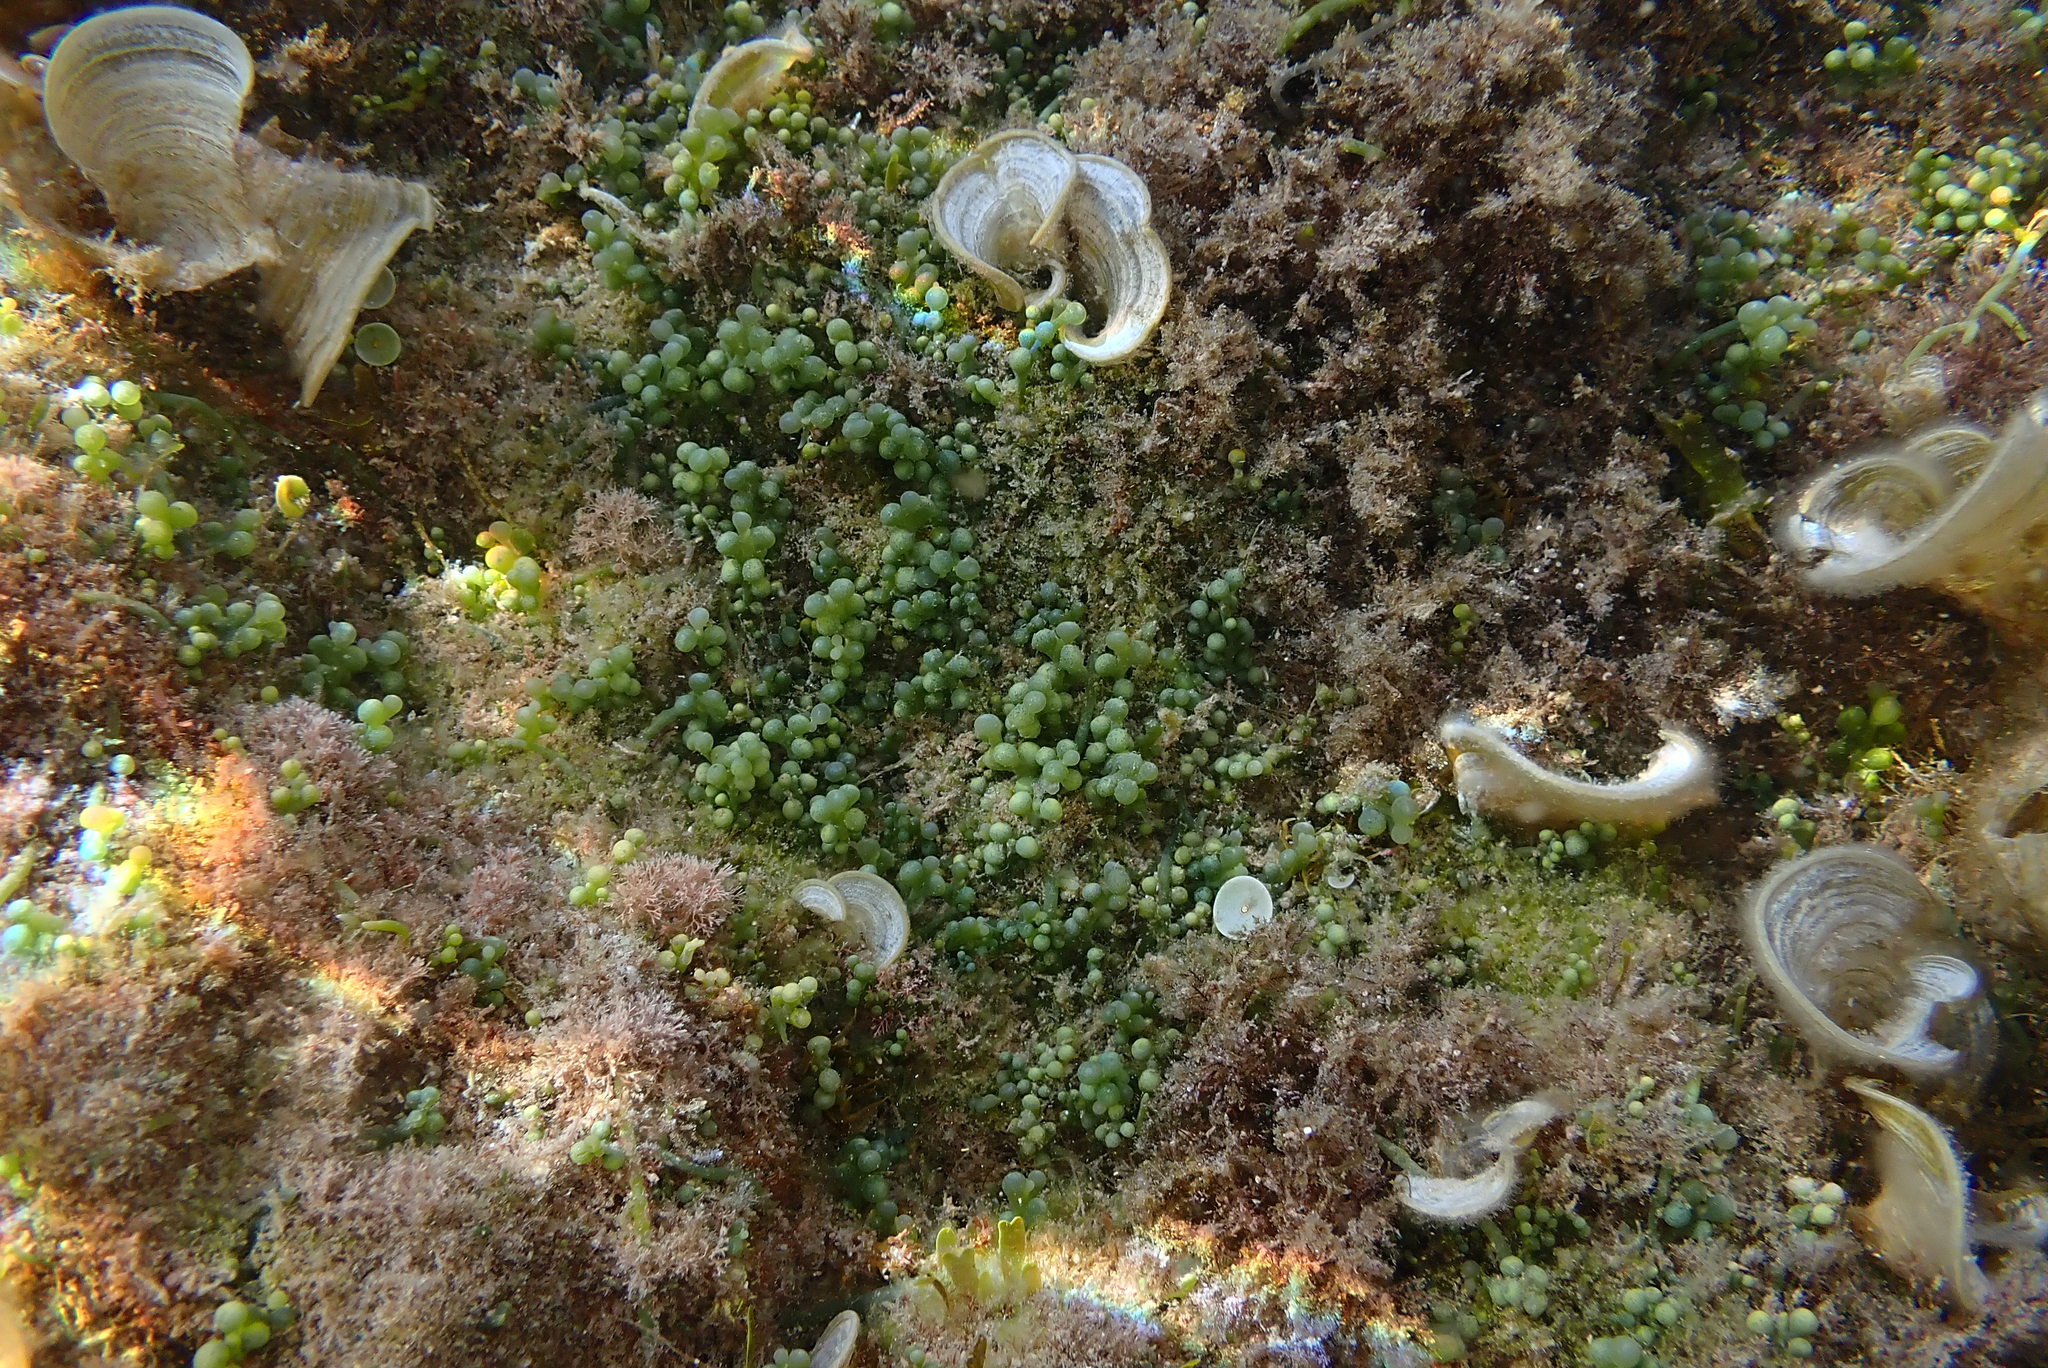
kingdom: Plantae
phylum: Chlorophyta
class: Ulvophyceae
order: Bryopsidales
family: Caulerpaceae
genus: Caulerpa
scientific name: Caulerpa cylindracea
